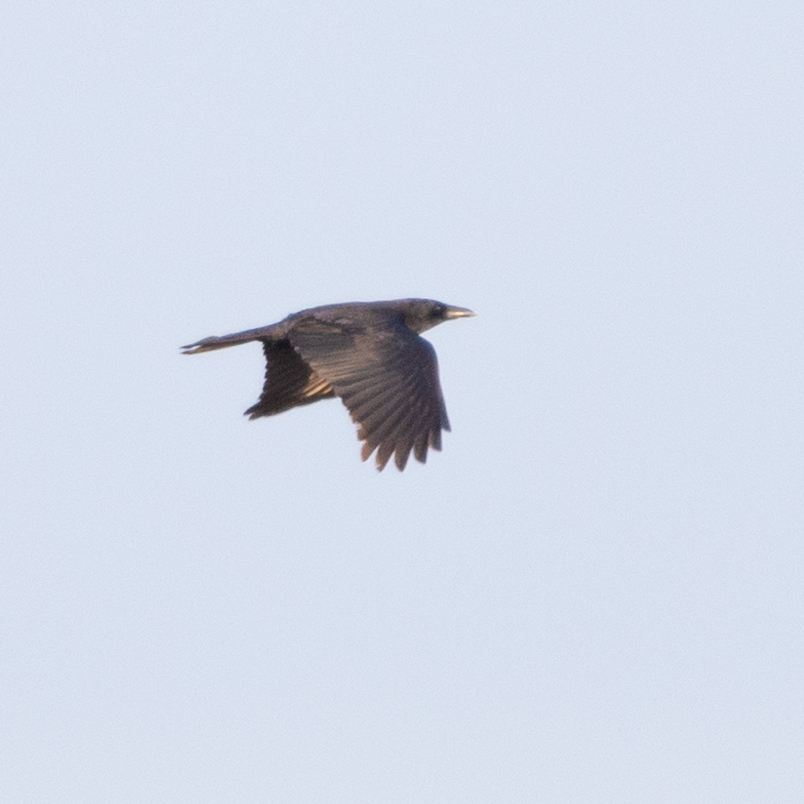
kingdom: Animalia
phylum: Chordata
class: Aves
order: Passeriformes
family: Corvidae
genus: Corvus
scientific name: Corvus corone
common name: Carrion crow
